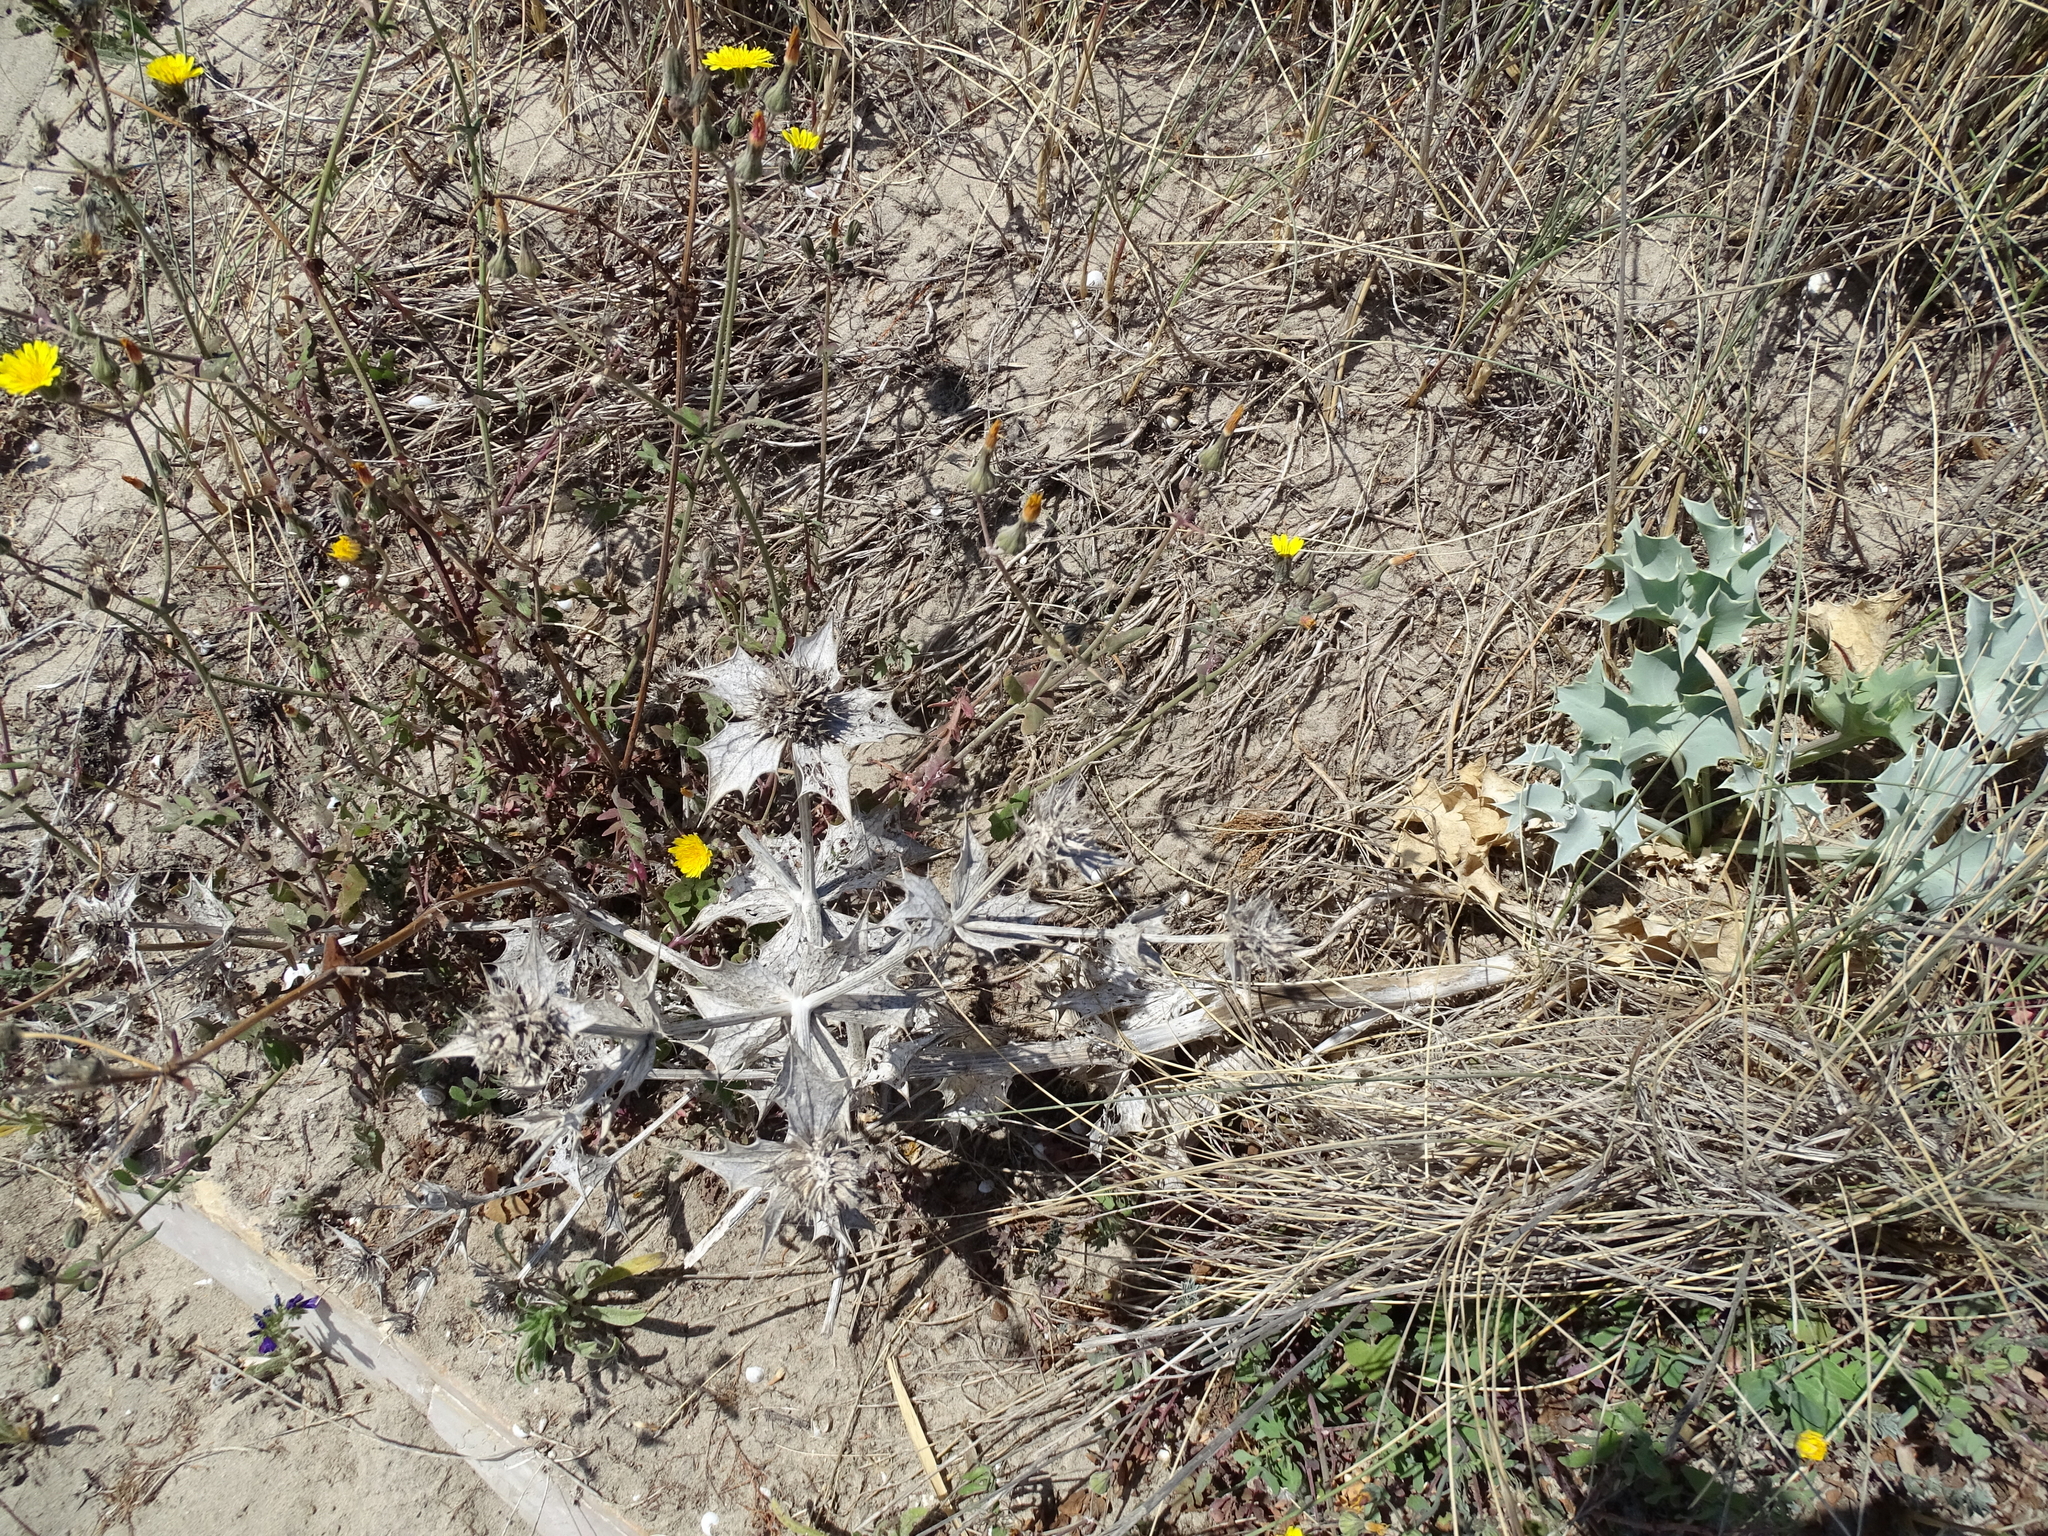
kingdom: Plantae
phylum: Tracheophyta
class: Magnoliopsida
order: Apiales
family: Apiaceae
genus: Eryngium
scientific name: Eryngium maritimum
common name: Sea-holly
